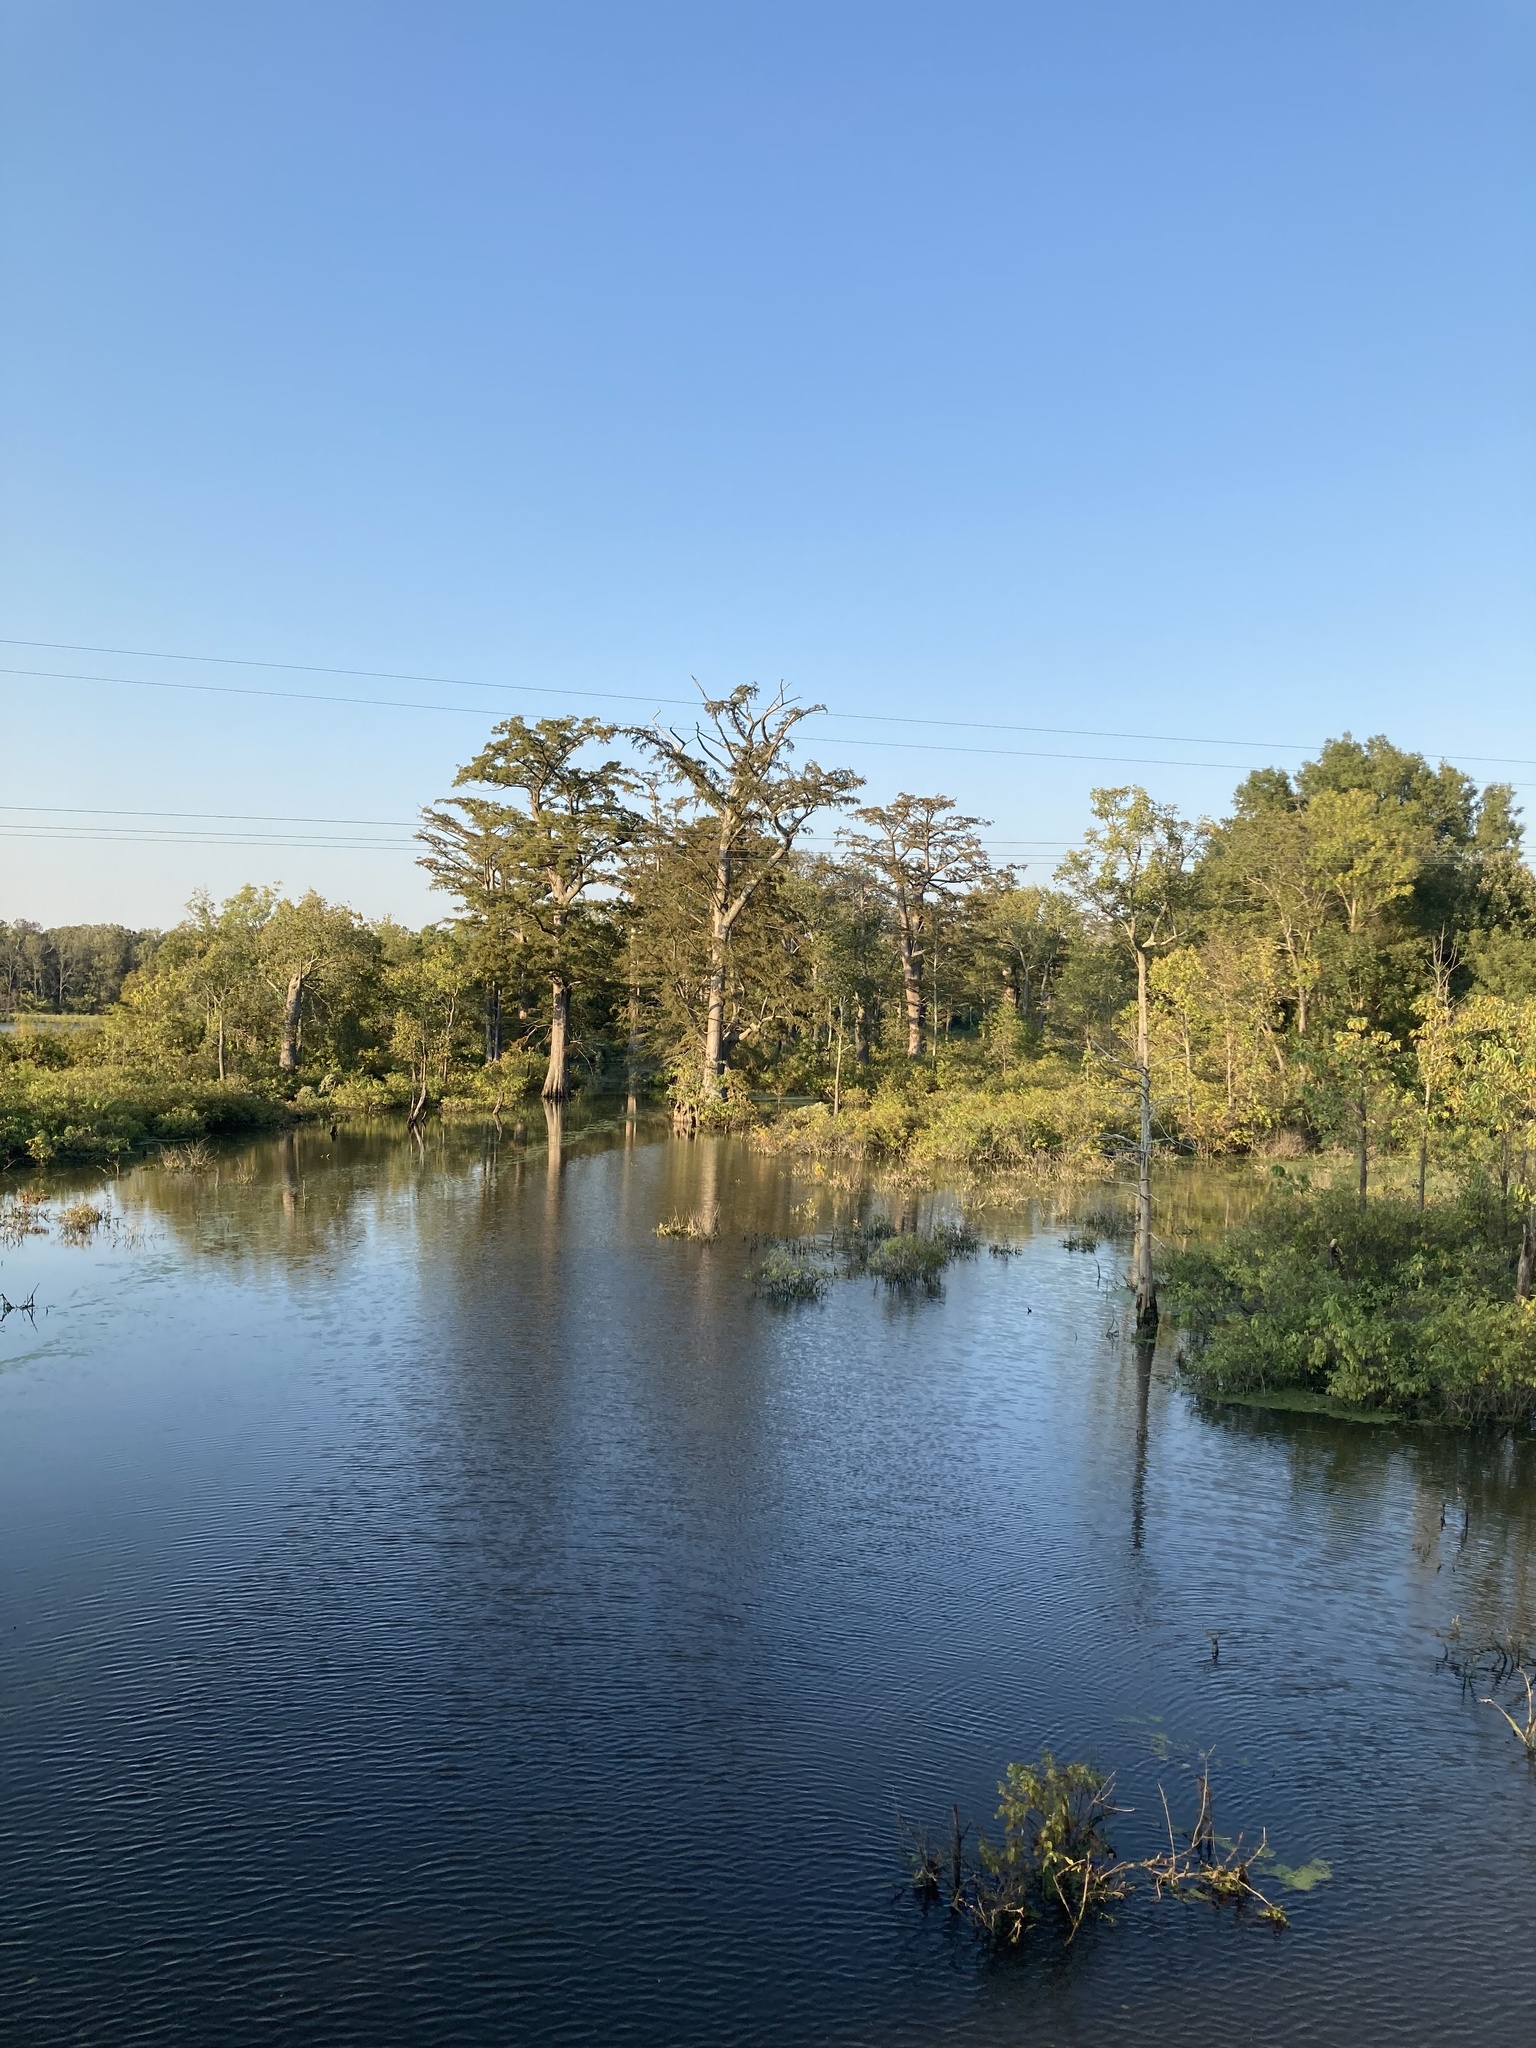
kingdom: Plantae
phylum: Tracheophyta
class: Pinopsida
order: Pinales
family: Cupressaceae
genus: Taxodium
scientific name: Taxodium distichum
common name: Bald cypress
